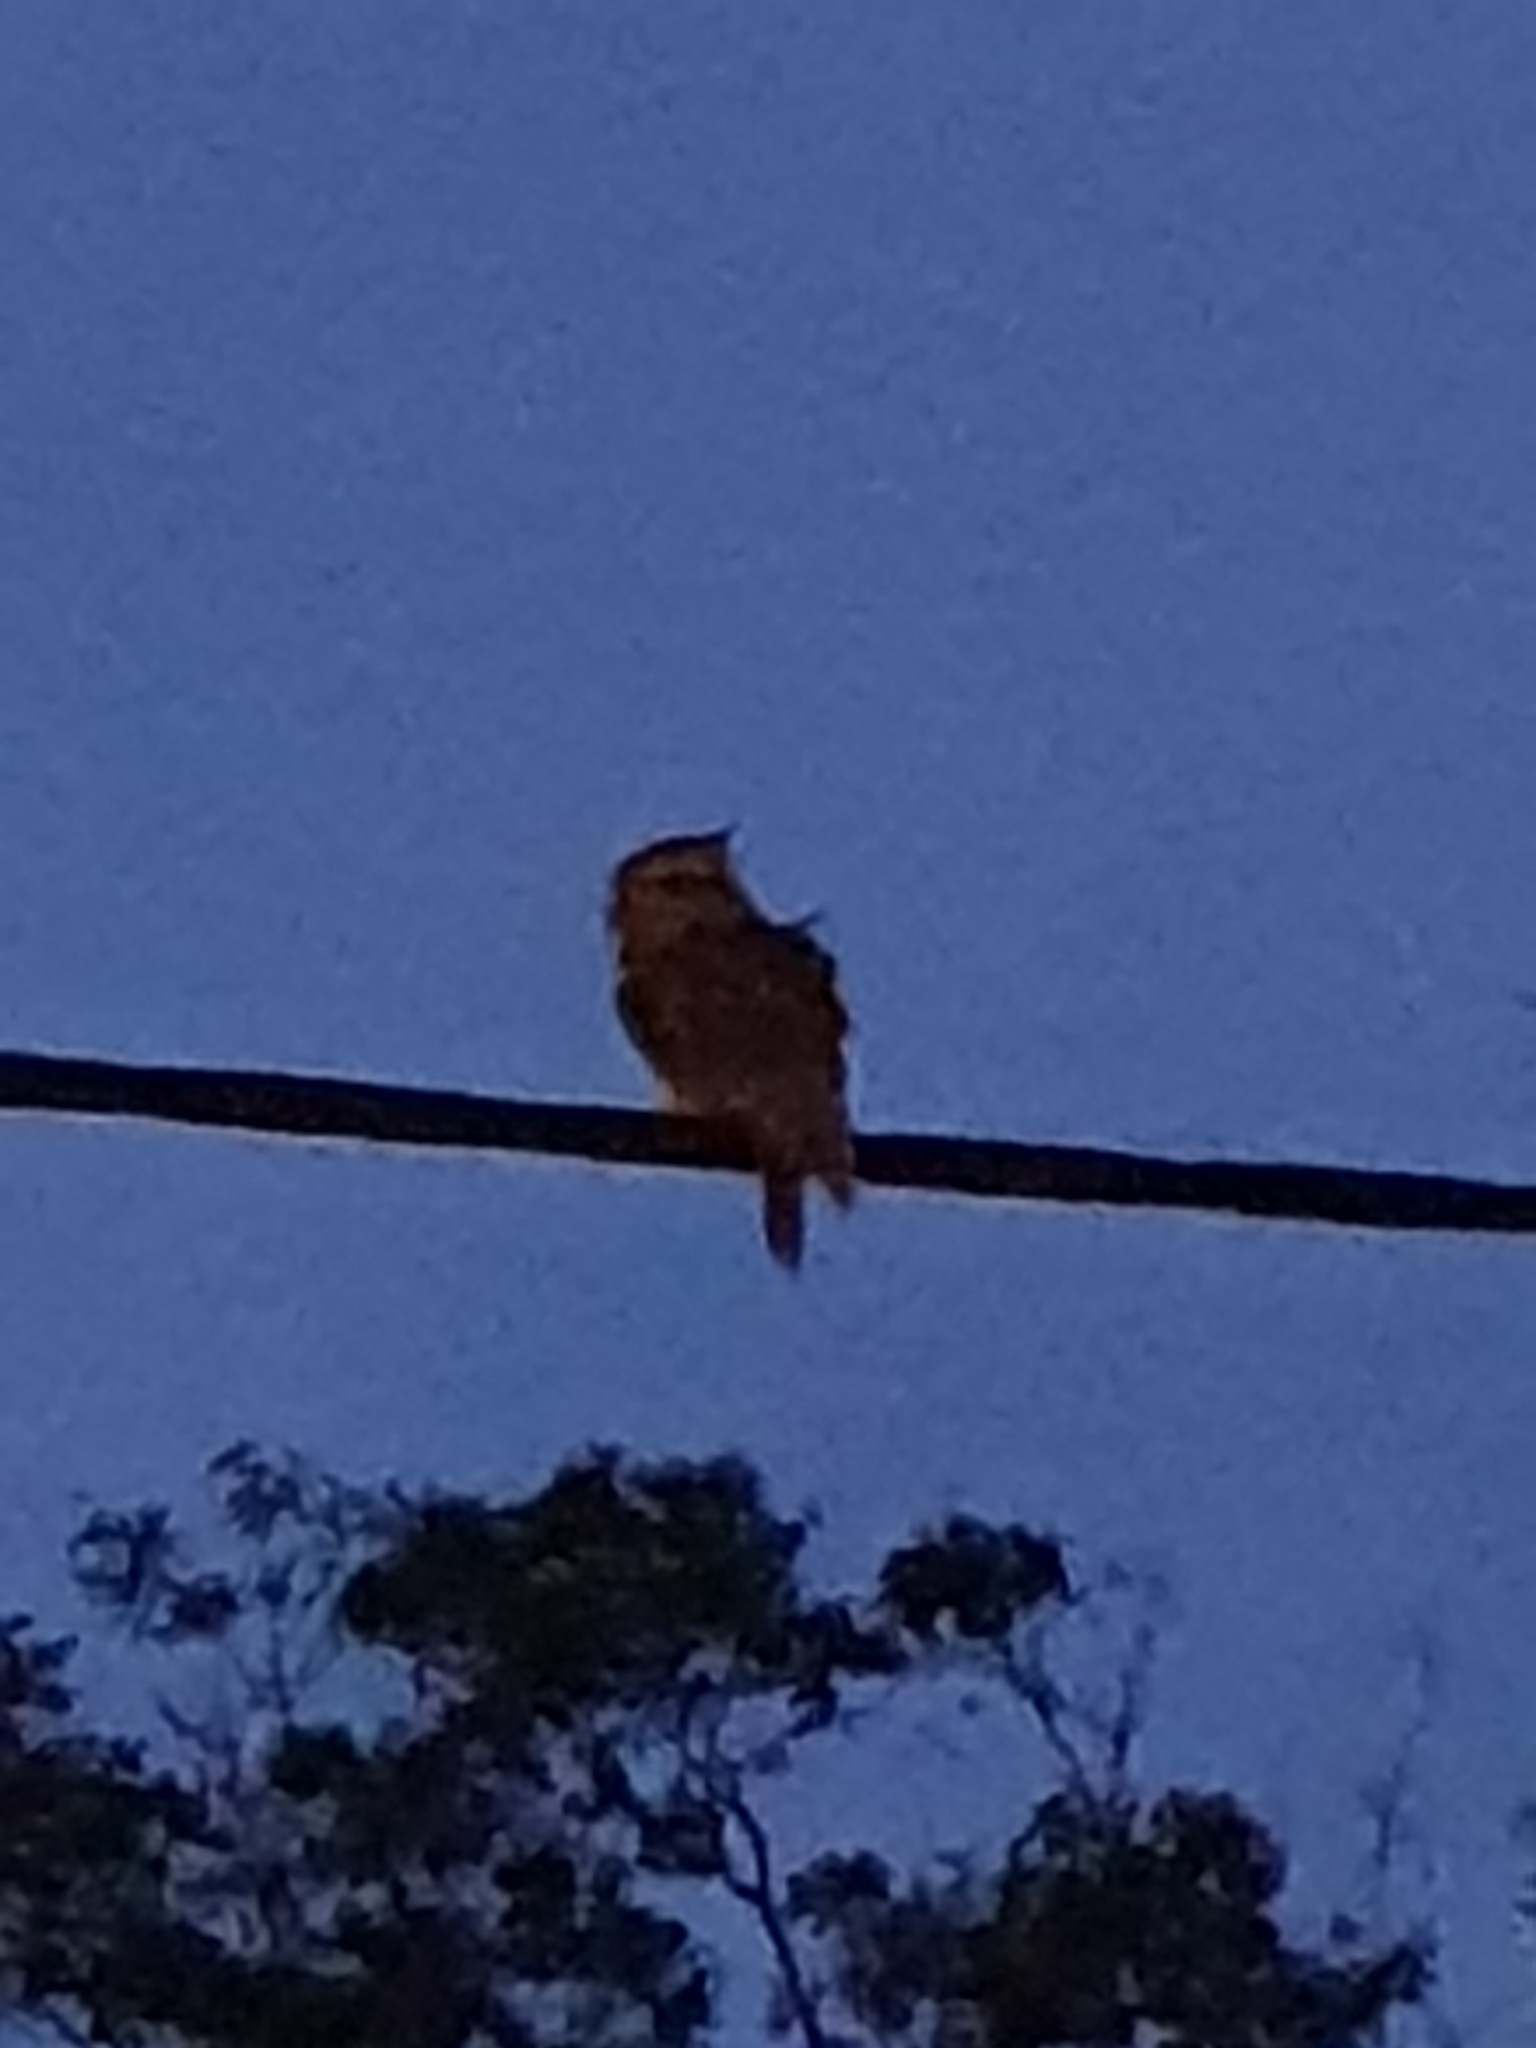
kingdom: Animalia
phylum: Chordata
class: Aves
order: Caprimulgiformes
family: Podargidae
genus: Podargus
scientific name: Podargus strigoides
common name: Tawny frogmouth
